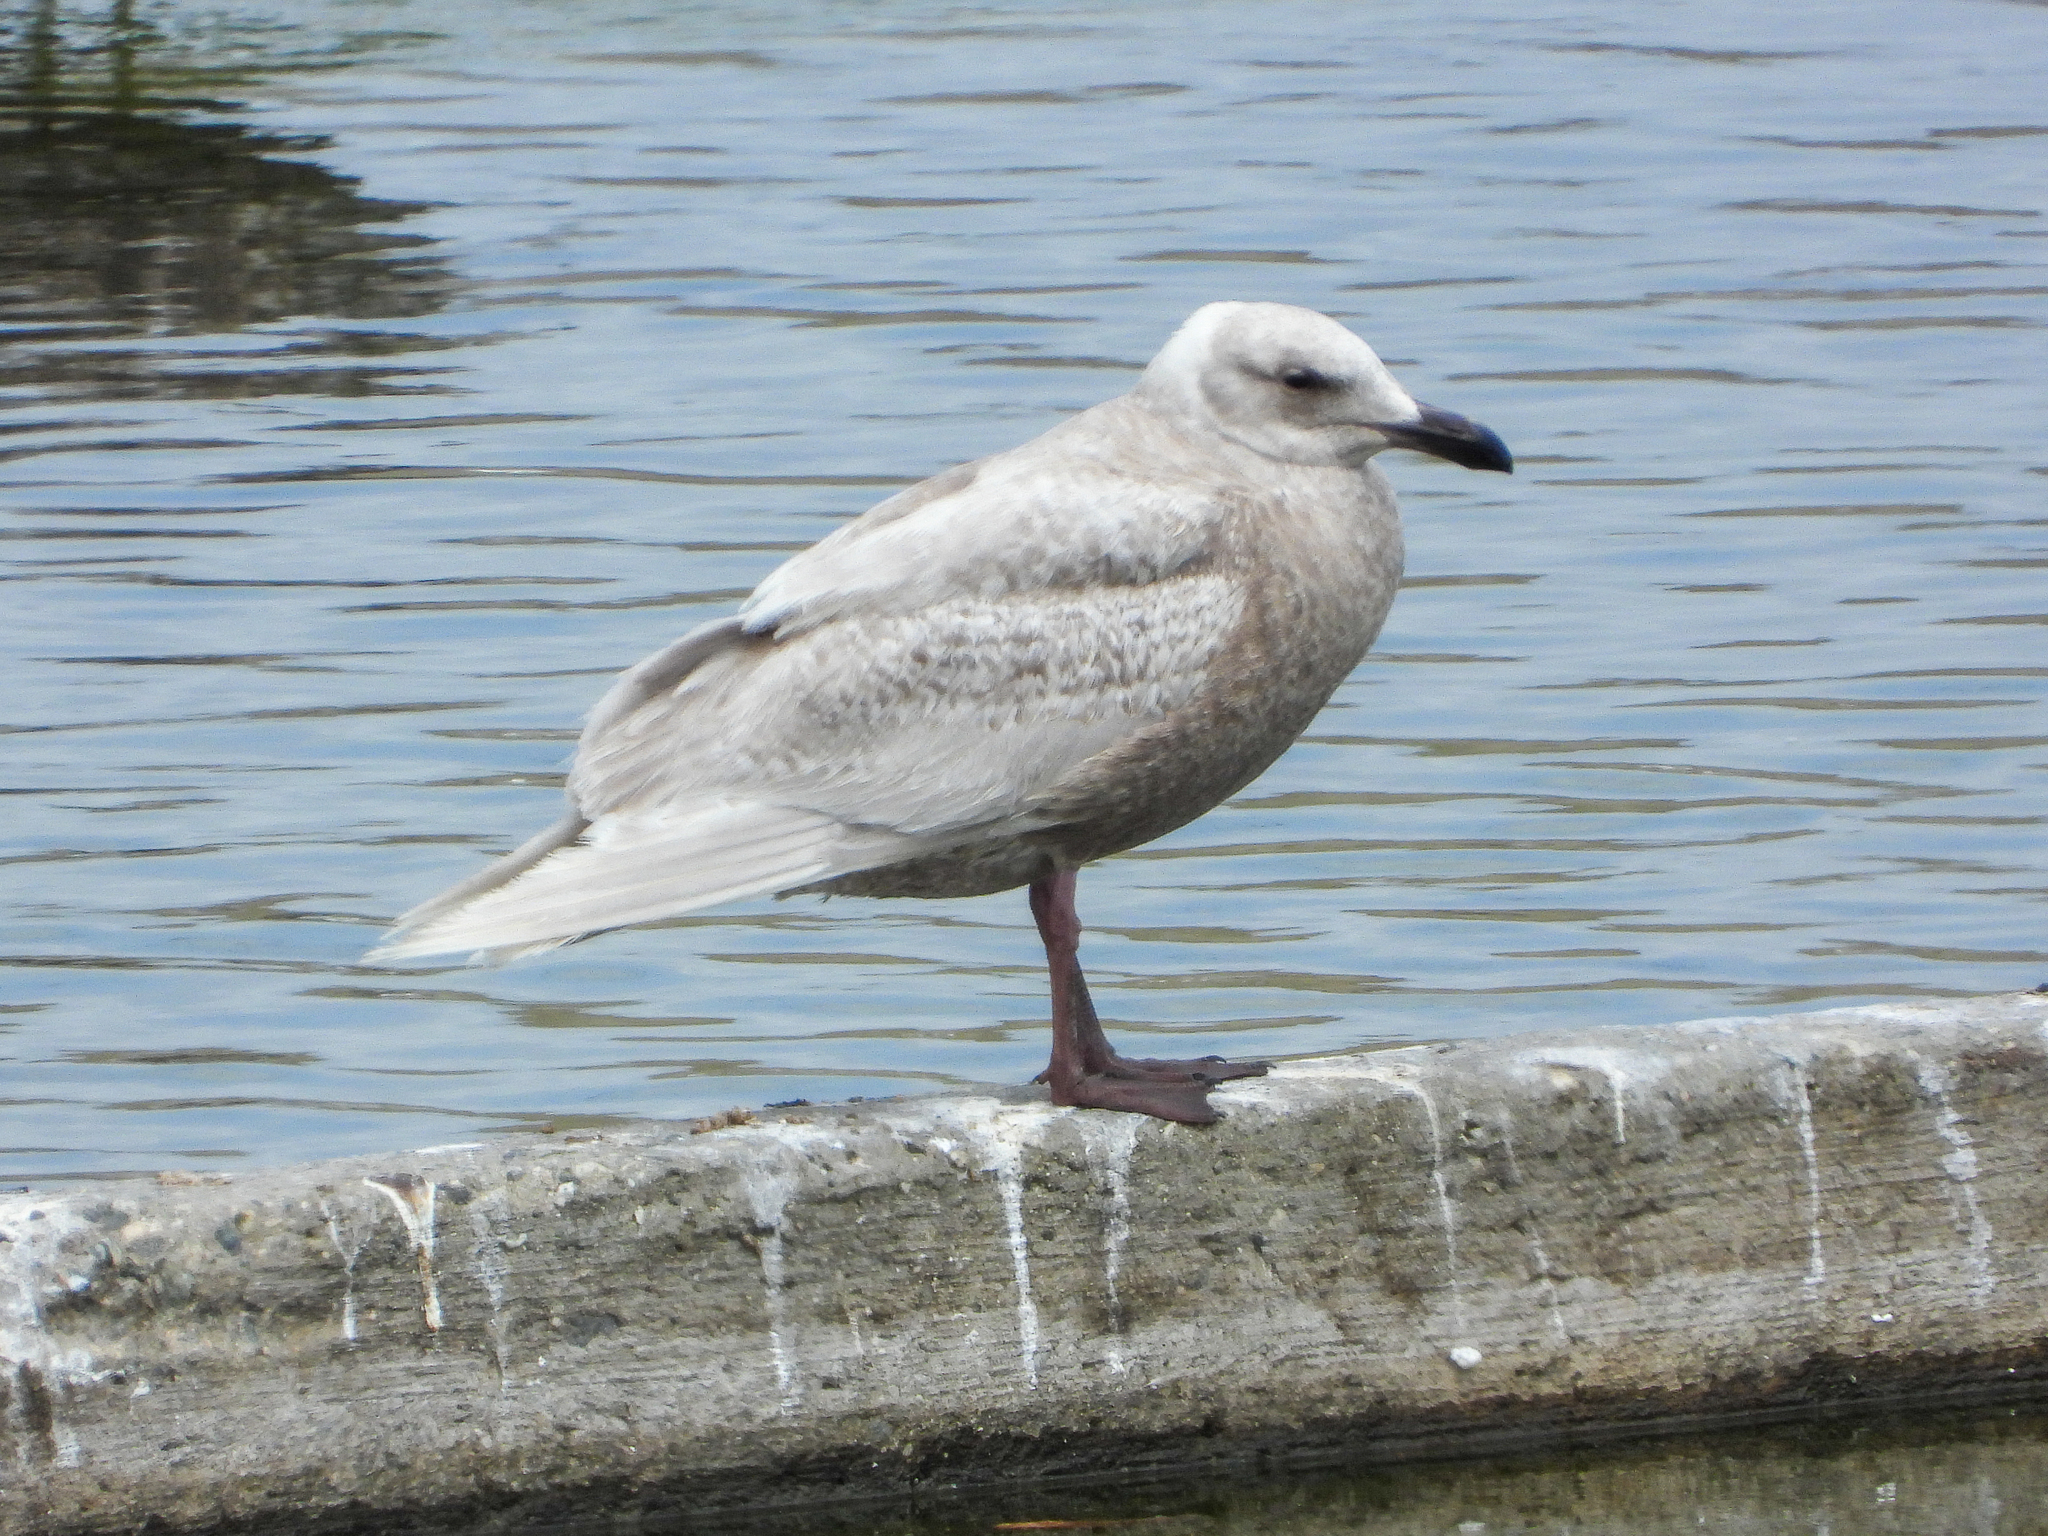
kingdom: Animalia
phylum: Chordata
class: Aves
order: Charadriiformes
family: Laridae
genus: Larus
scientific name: Larus glaucescens
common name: Glaucous-winged gull
